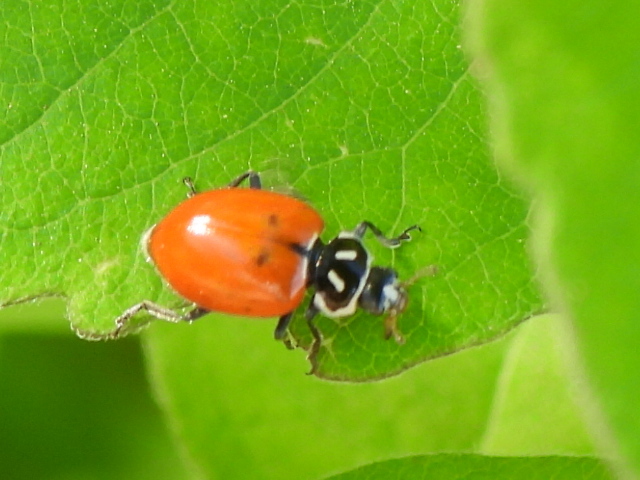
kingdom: Animalia
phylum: Arthropoda
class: Insecta
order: Coleoptera
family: Coccinellidae
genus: Hippodamia
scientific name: Hippodamia convergens
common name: Convergent lady beetle
